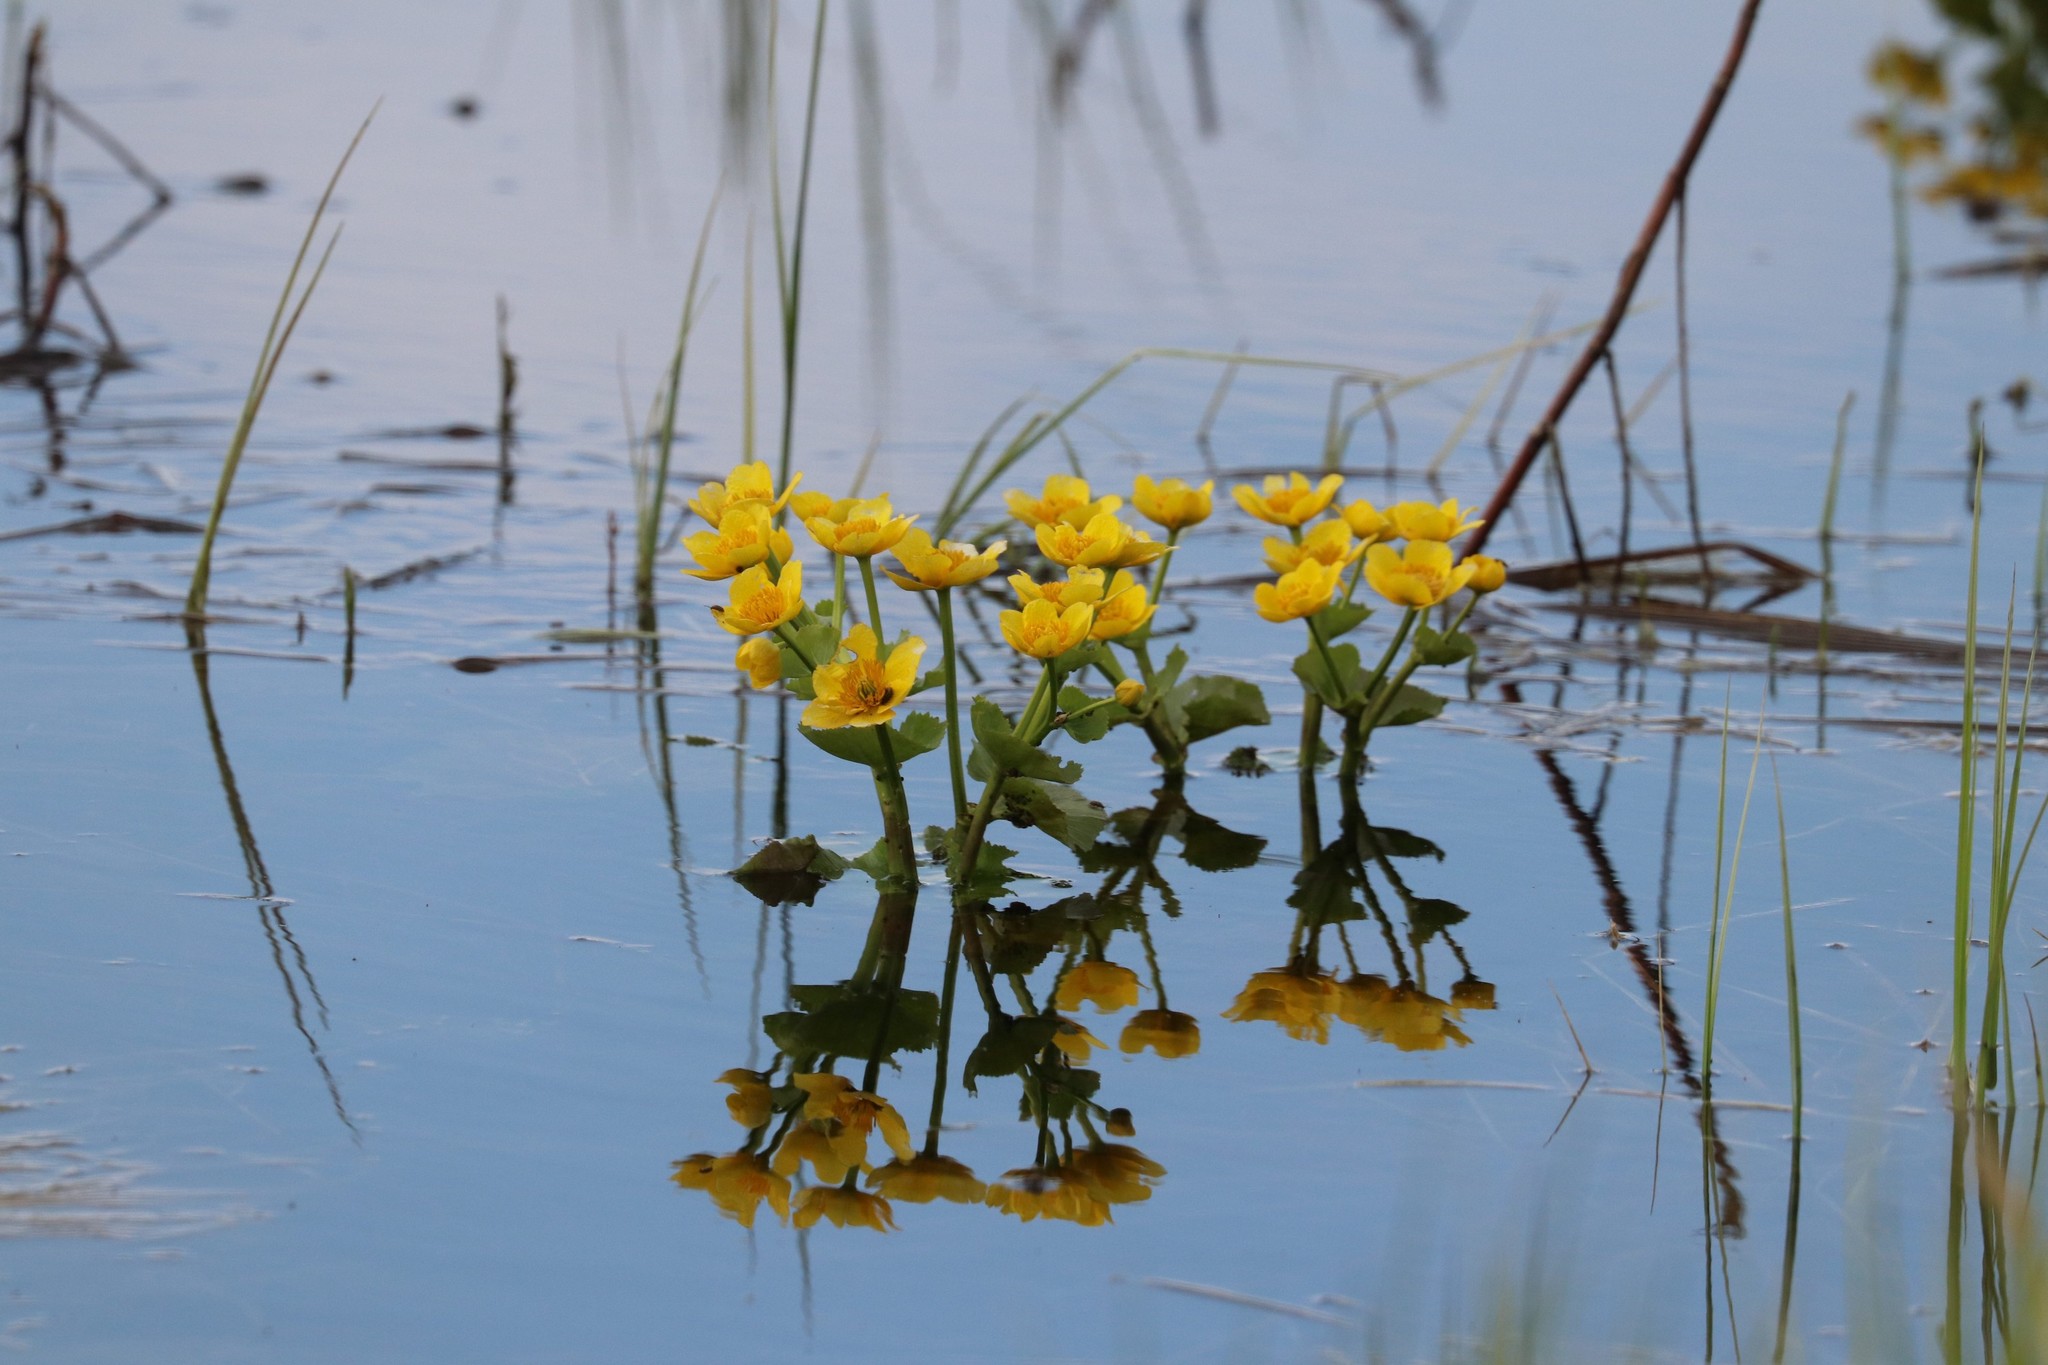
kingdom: Plantae
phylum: Tracheophyta
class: Magnoliopsida
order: Ranunculales
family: Ranunculaceae
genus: Caltha
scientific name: Caltha palustris
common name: Marsh marigold
